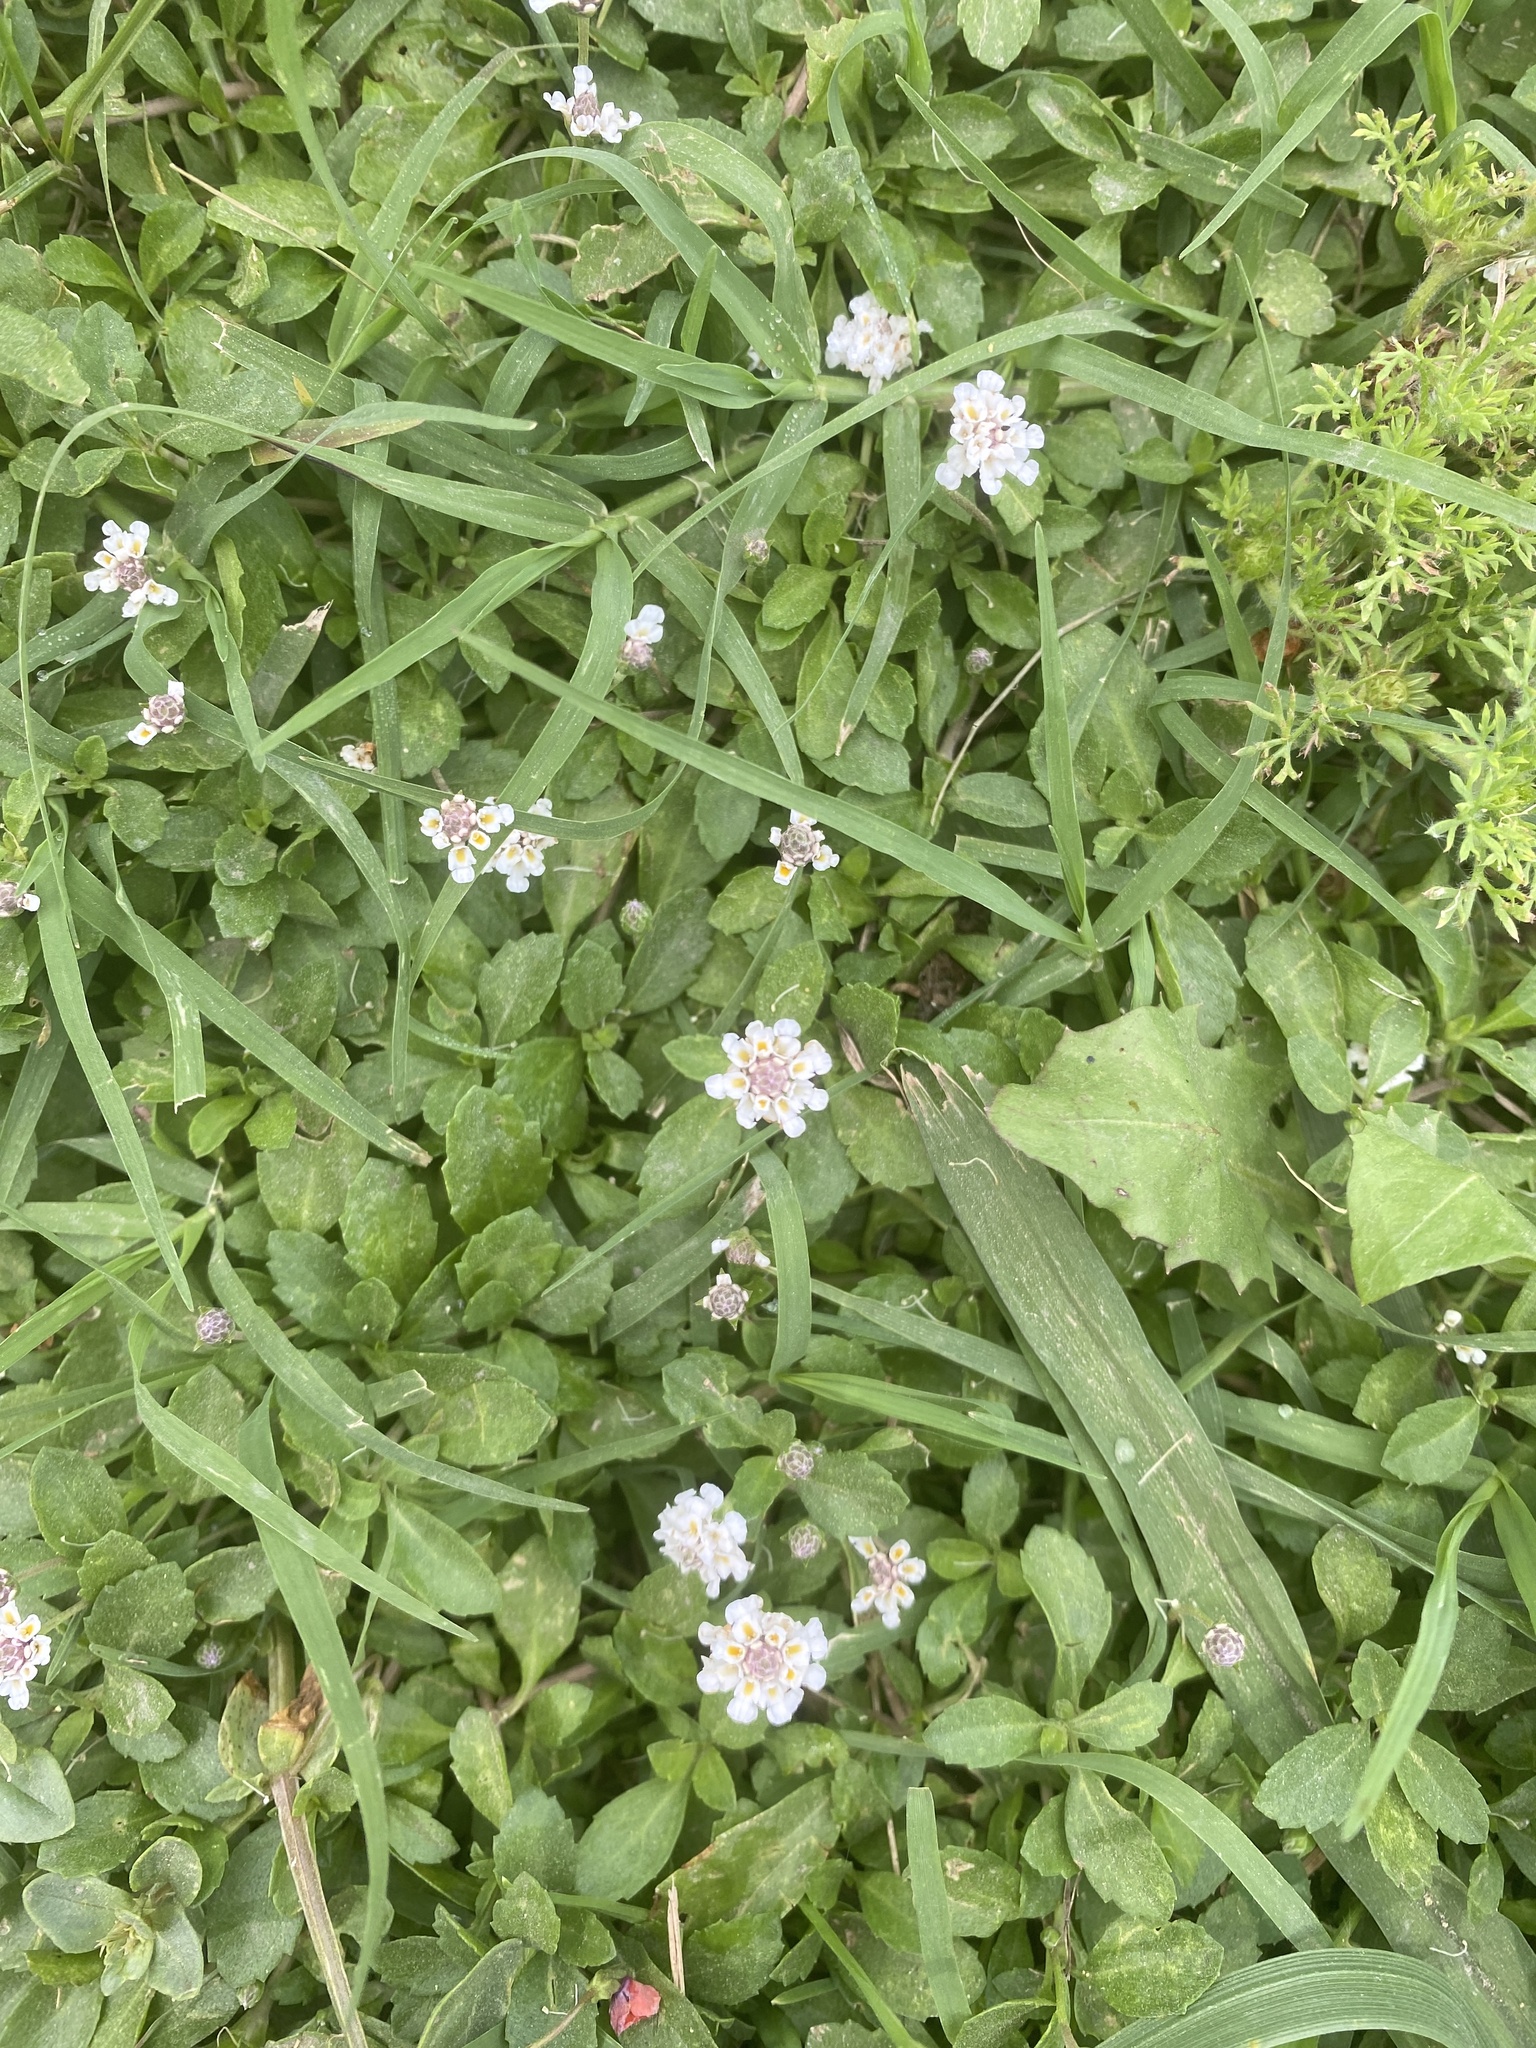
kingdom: Plantae
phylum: Tracheophyta
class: Magnoliopsida
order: Lamiales
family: Verbenaceae
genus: Phyla
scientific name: Phyla nodiflora
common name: Frogfruit
